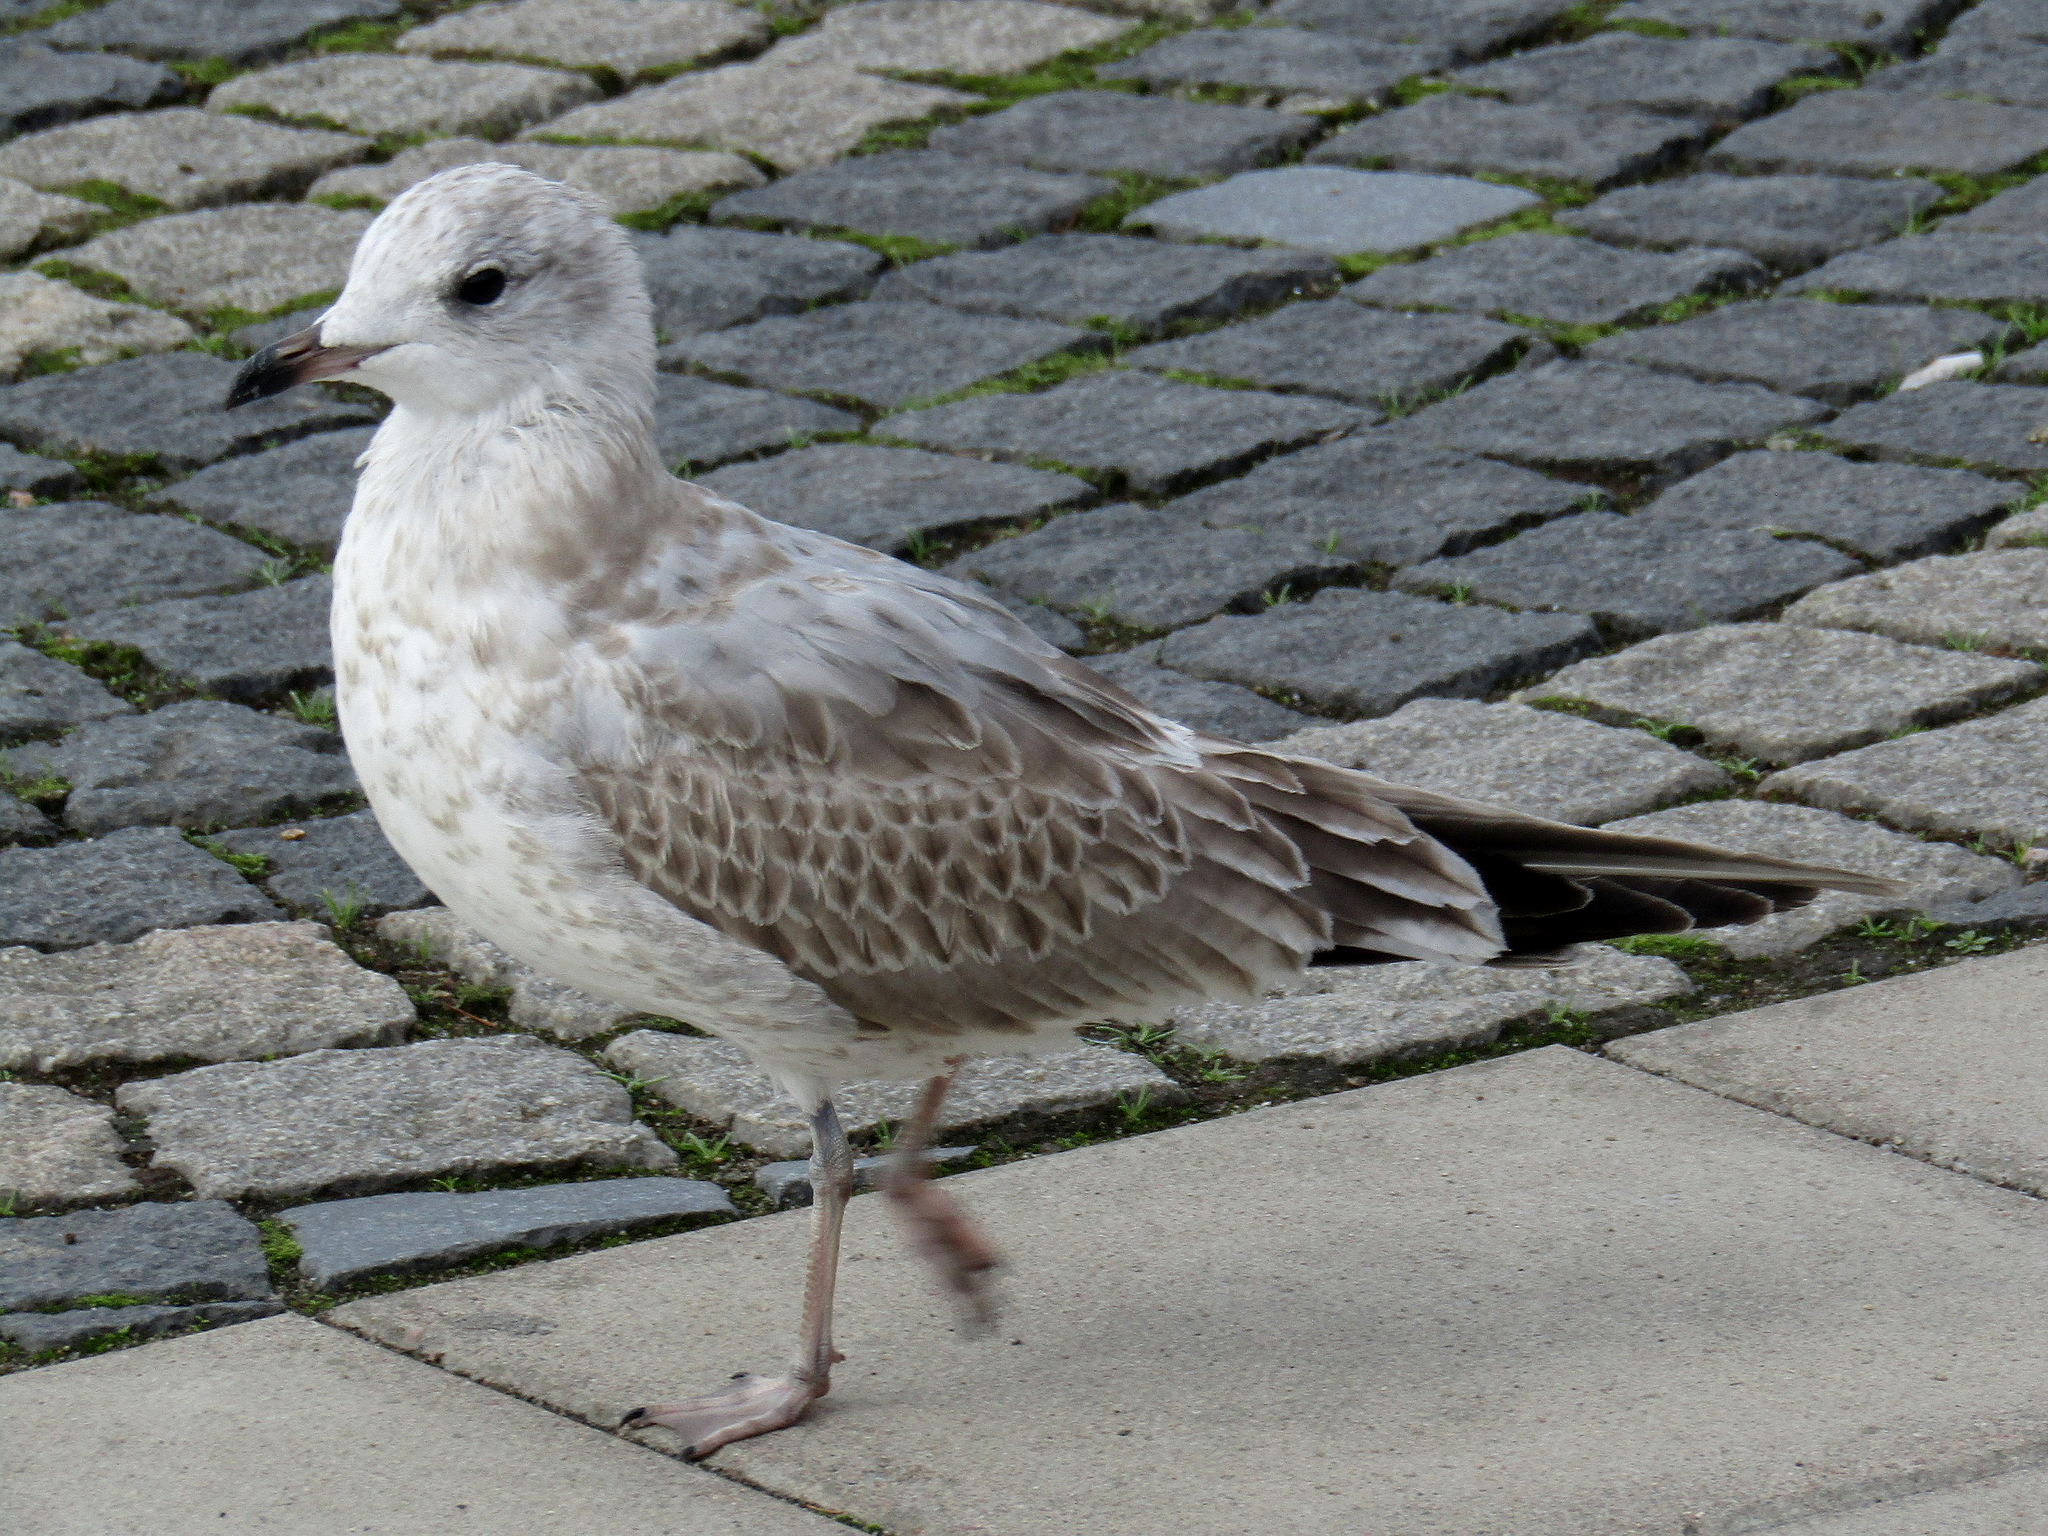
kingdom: Animalia
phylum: Chordata
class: Aves
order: Charadriiformes
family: Laridae
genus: Larus
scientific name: Larus canus
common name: Mew gull
